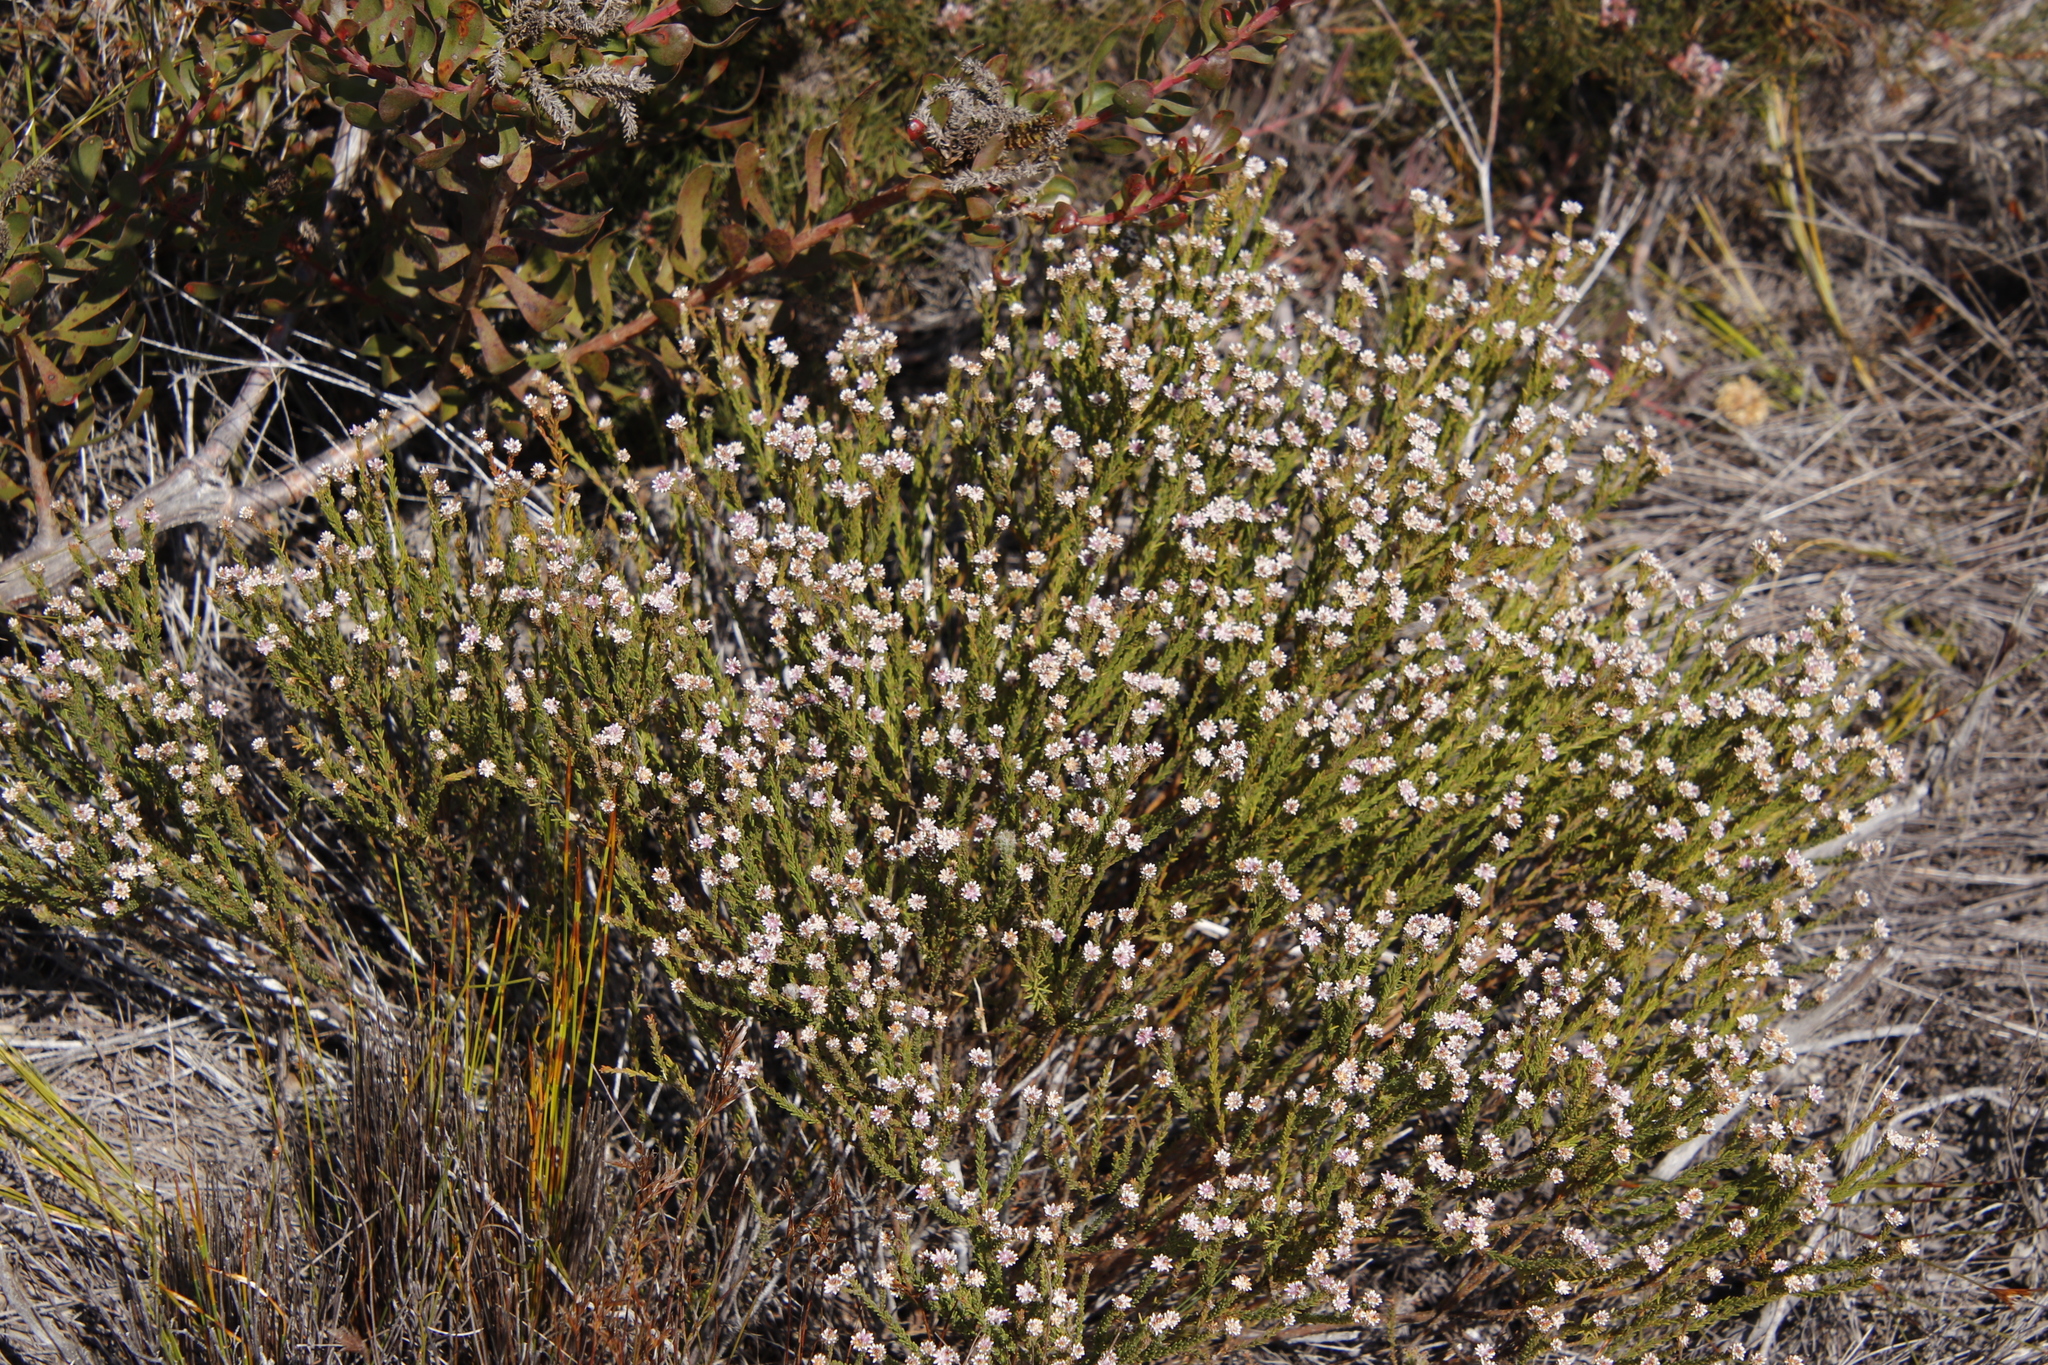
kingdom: Plantae
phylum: Tracheophyta
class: Magnoliopsida
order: Bruniales
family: Bruniaceae
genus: Staavia
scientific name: Staavia radiata
